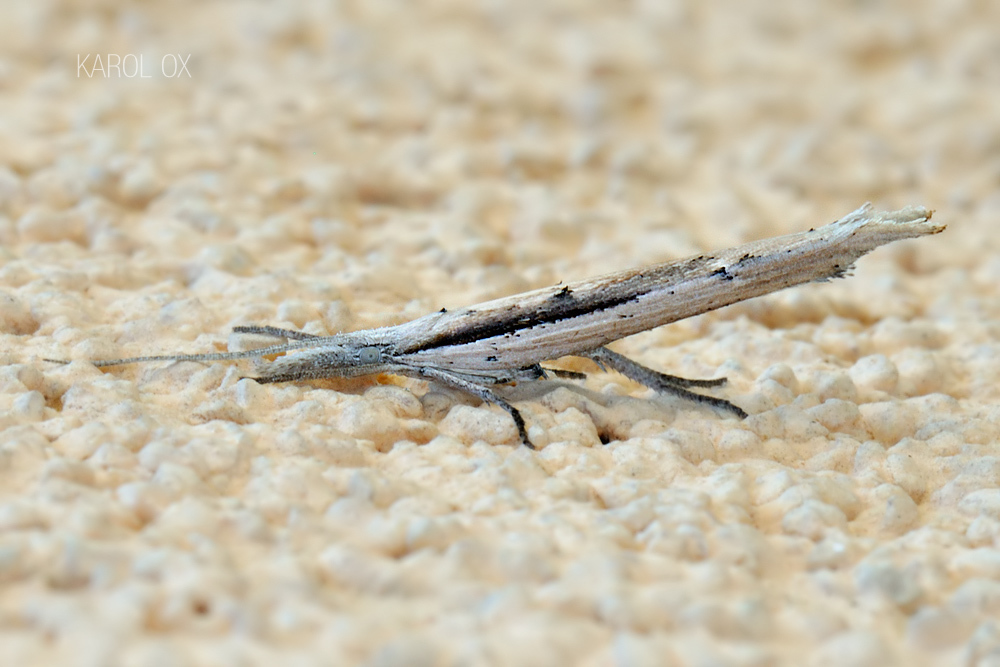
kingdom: Animalia
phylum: Arthropoda
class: Insecta
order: Lepidoptera
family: Ypsolophidae
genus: Ypsolopha
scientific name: Ypsolopha mucronella
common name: Spindle smudge
